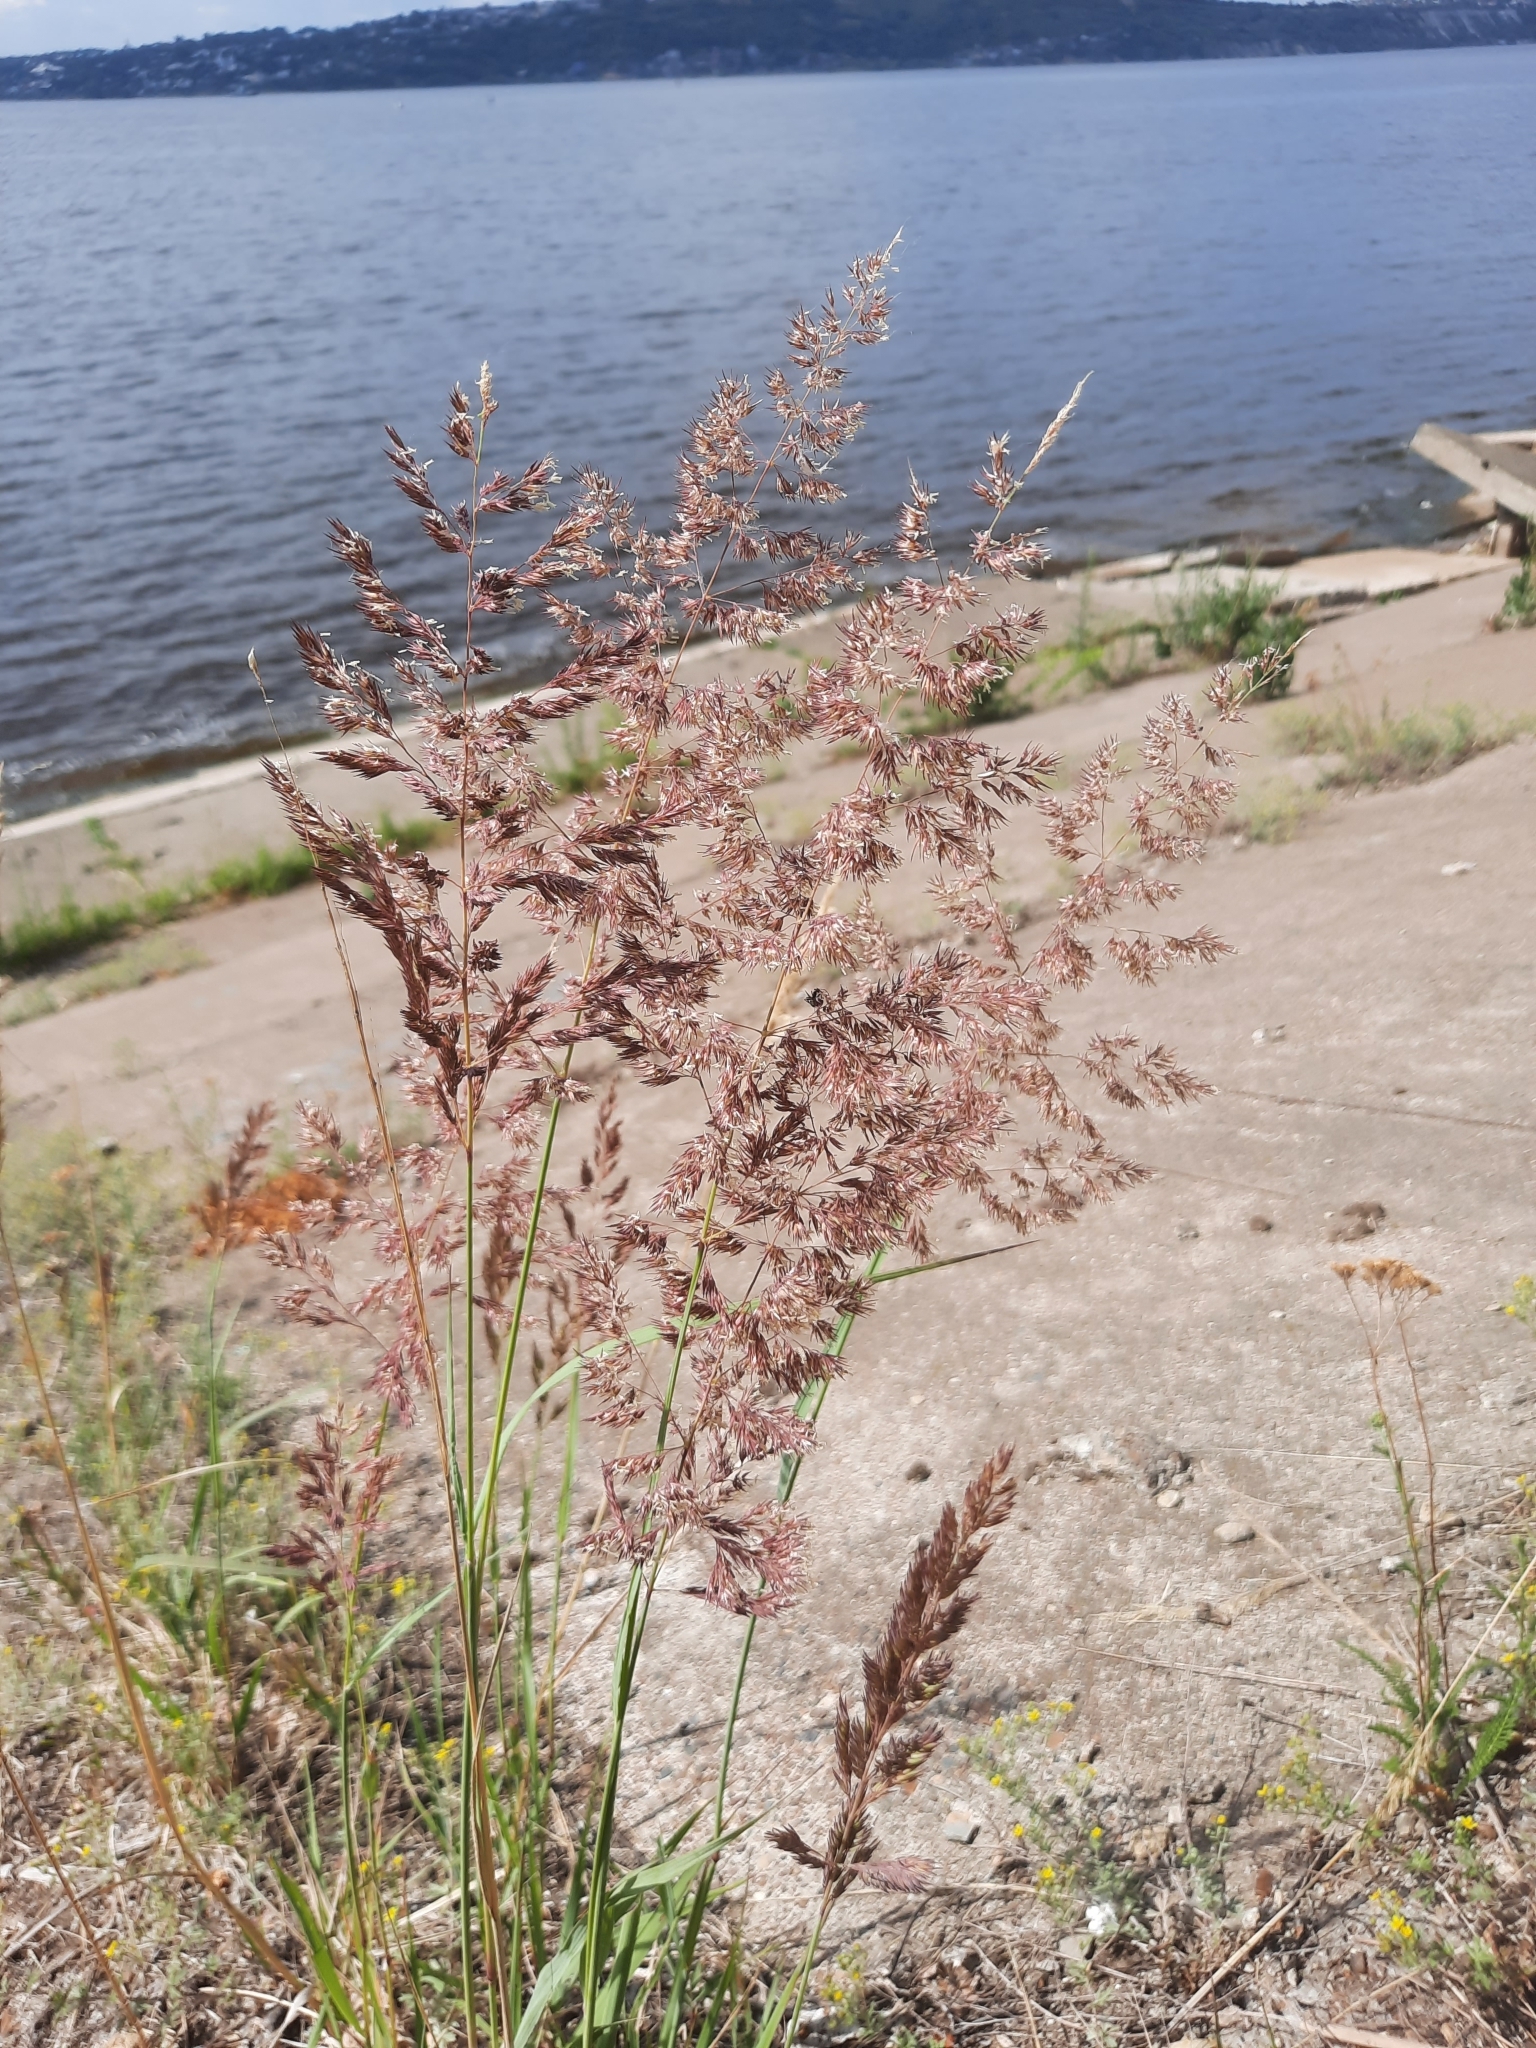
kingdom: Plantae
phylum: Tracheophyta
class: Liliopsida
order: Poales
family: Poaceae
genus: Calamagrostis
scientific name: Calamagrostis epigejos
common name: Wood small-reed
